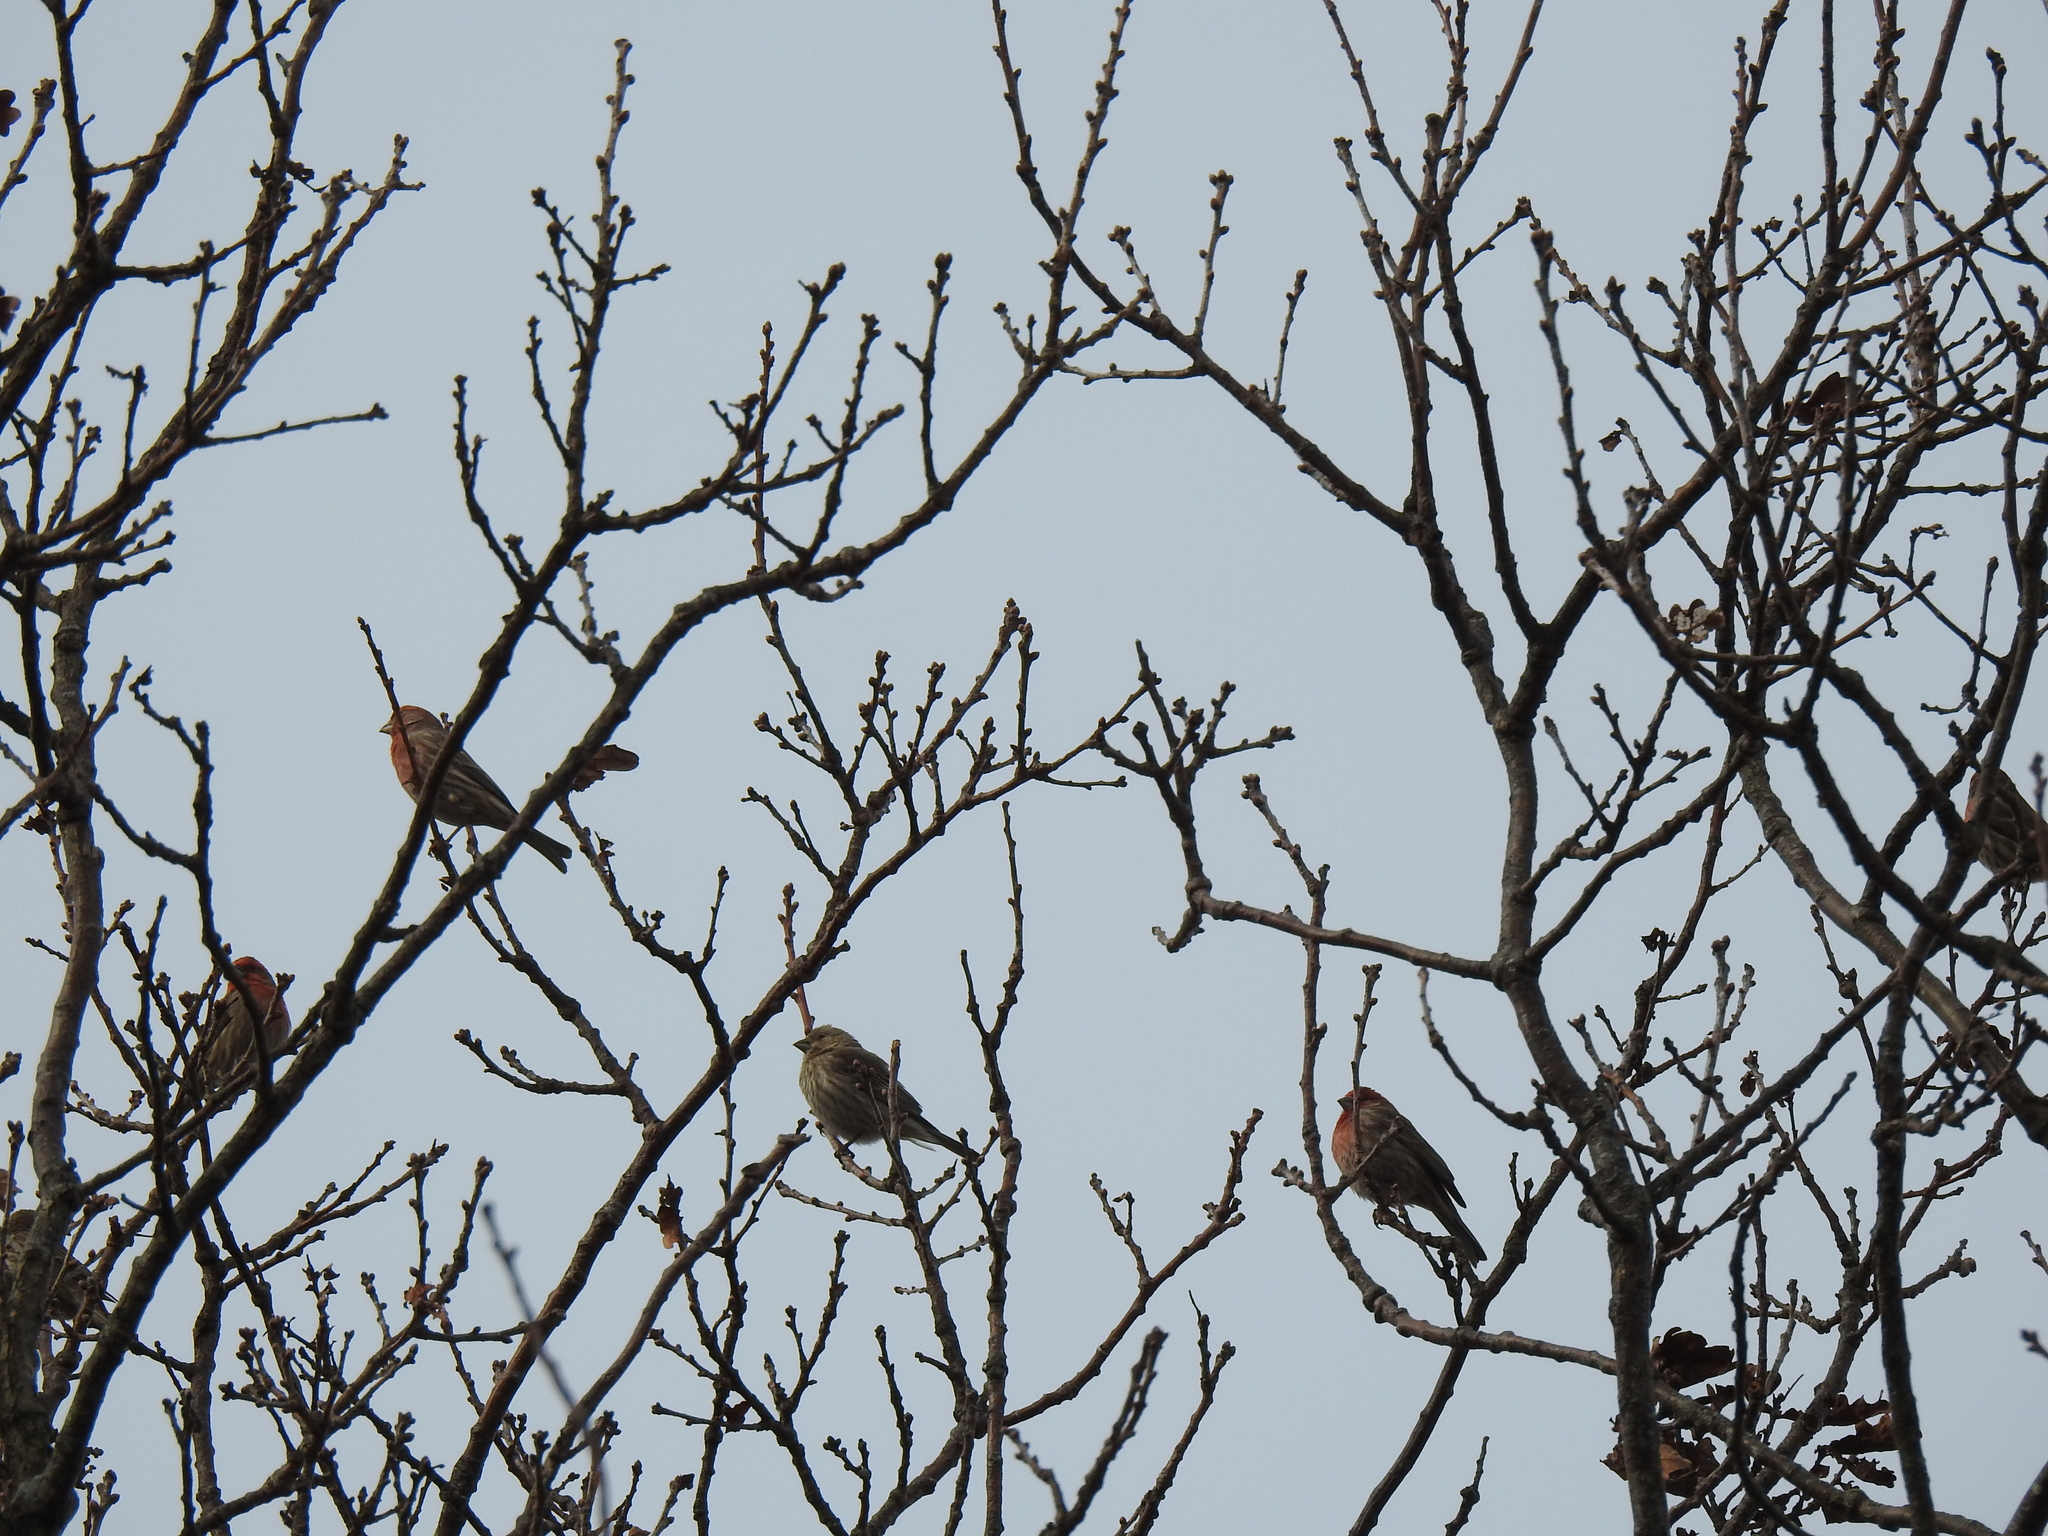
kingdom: Animalia
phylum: Chordata
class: Aves
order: Passeriformes
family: Fringillidae
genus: Haemorhous
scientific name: Haemorhous mexicanus
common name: House finch
